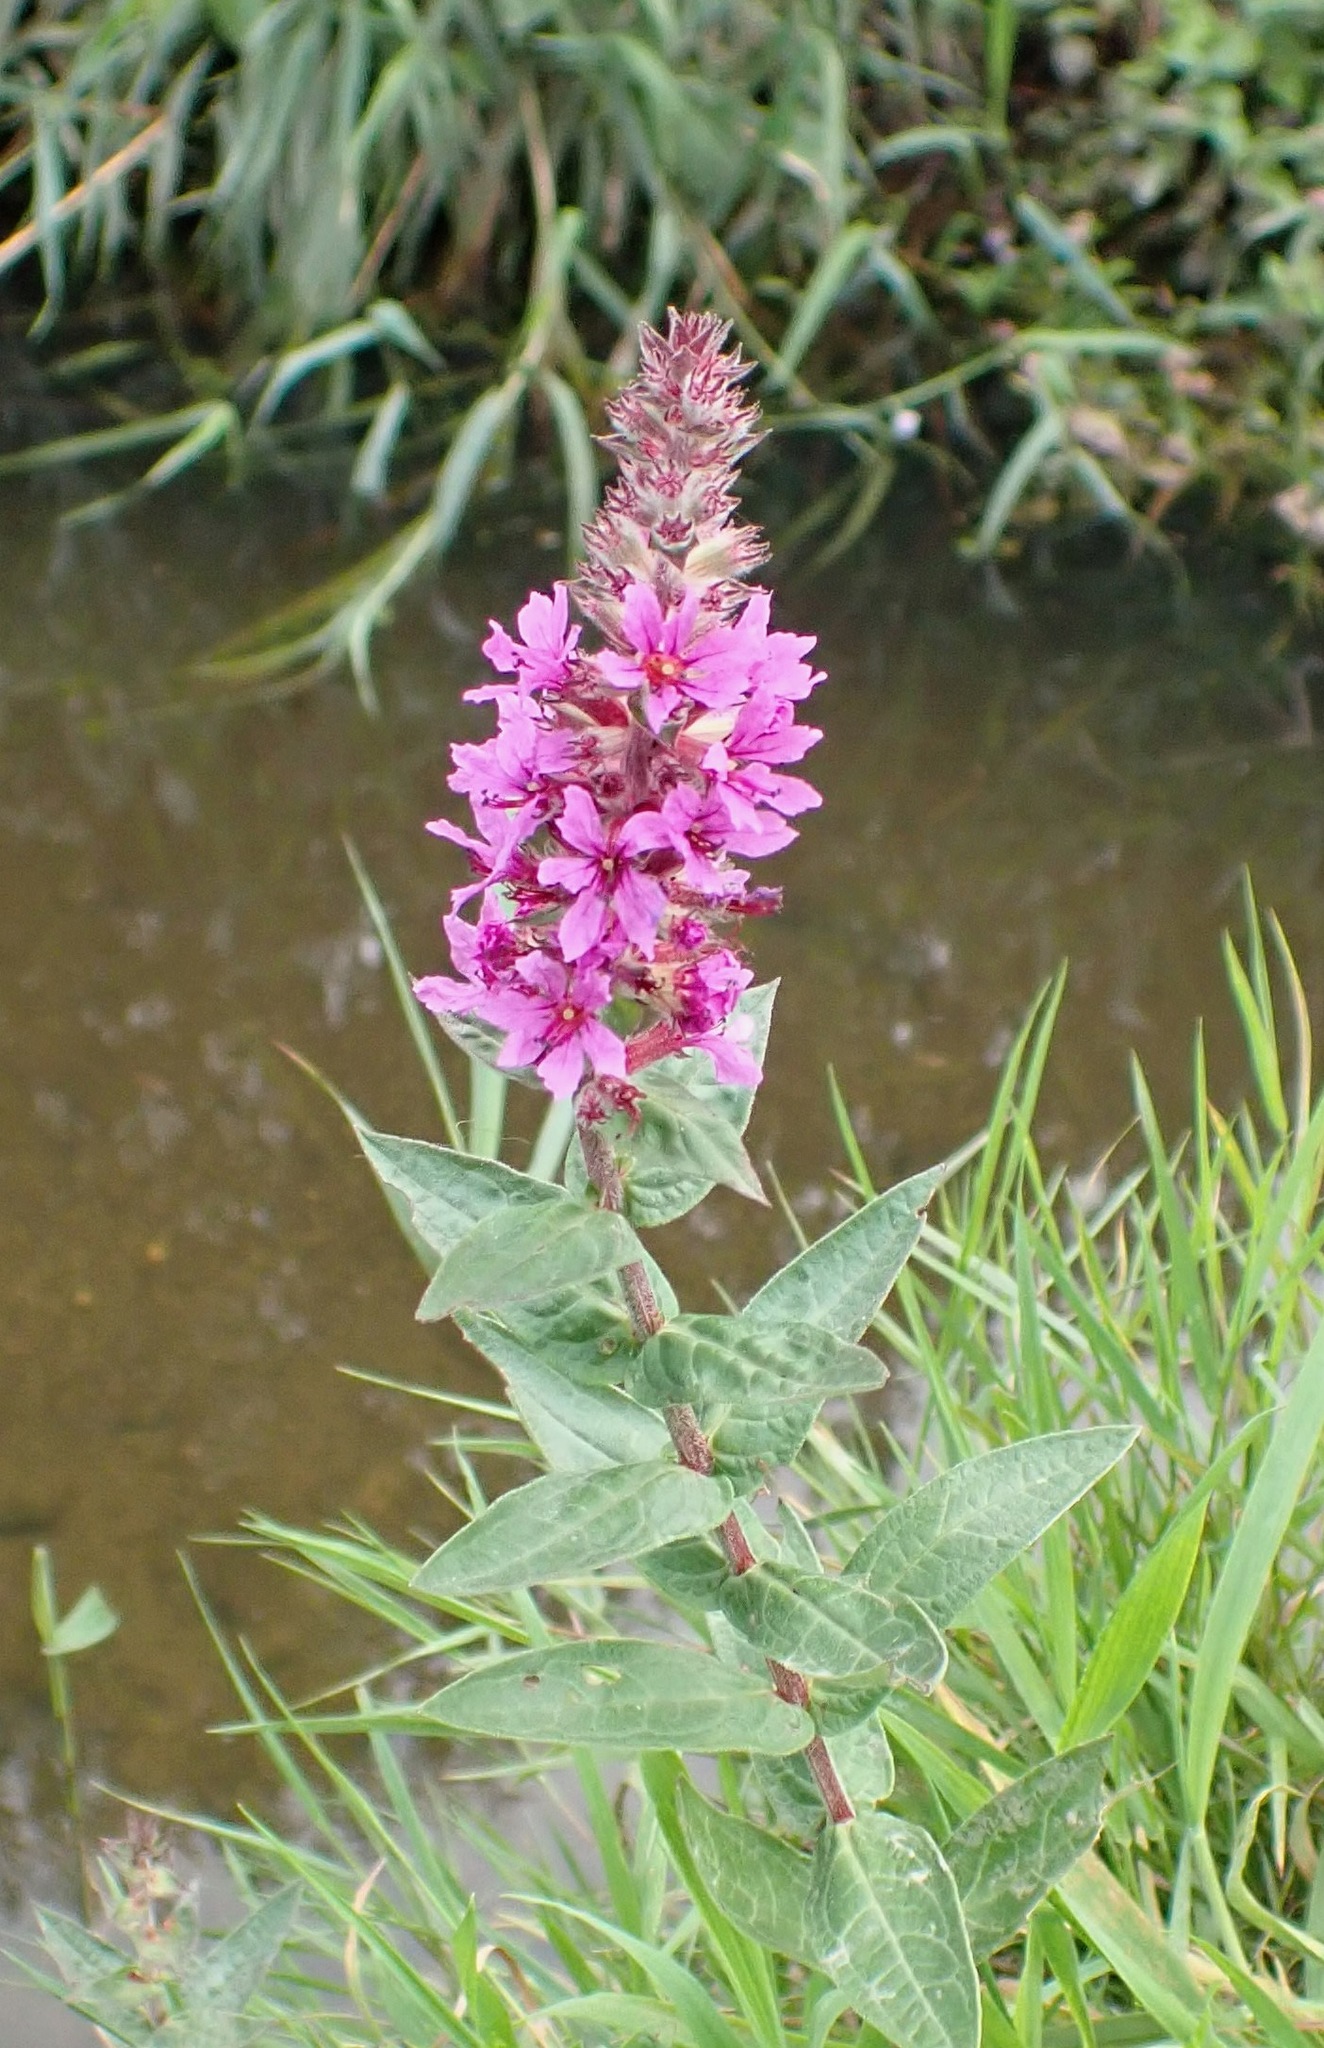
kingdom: Plantae
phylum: Tracheophyta
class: Magnoliopsida
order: Myrtales
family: Lythraceae
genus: Lythrum
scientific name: Lythrum salicaria
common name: Purple loosestrife
